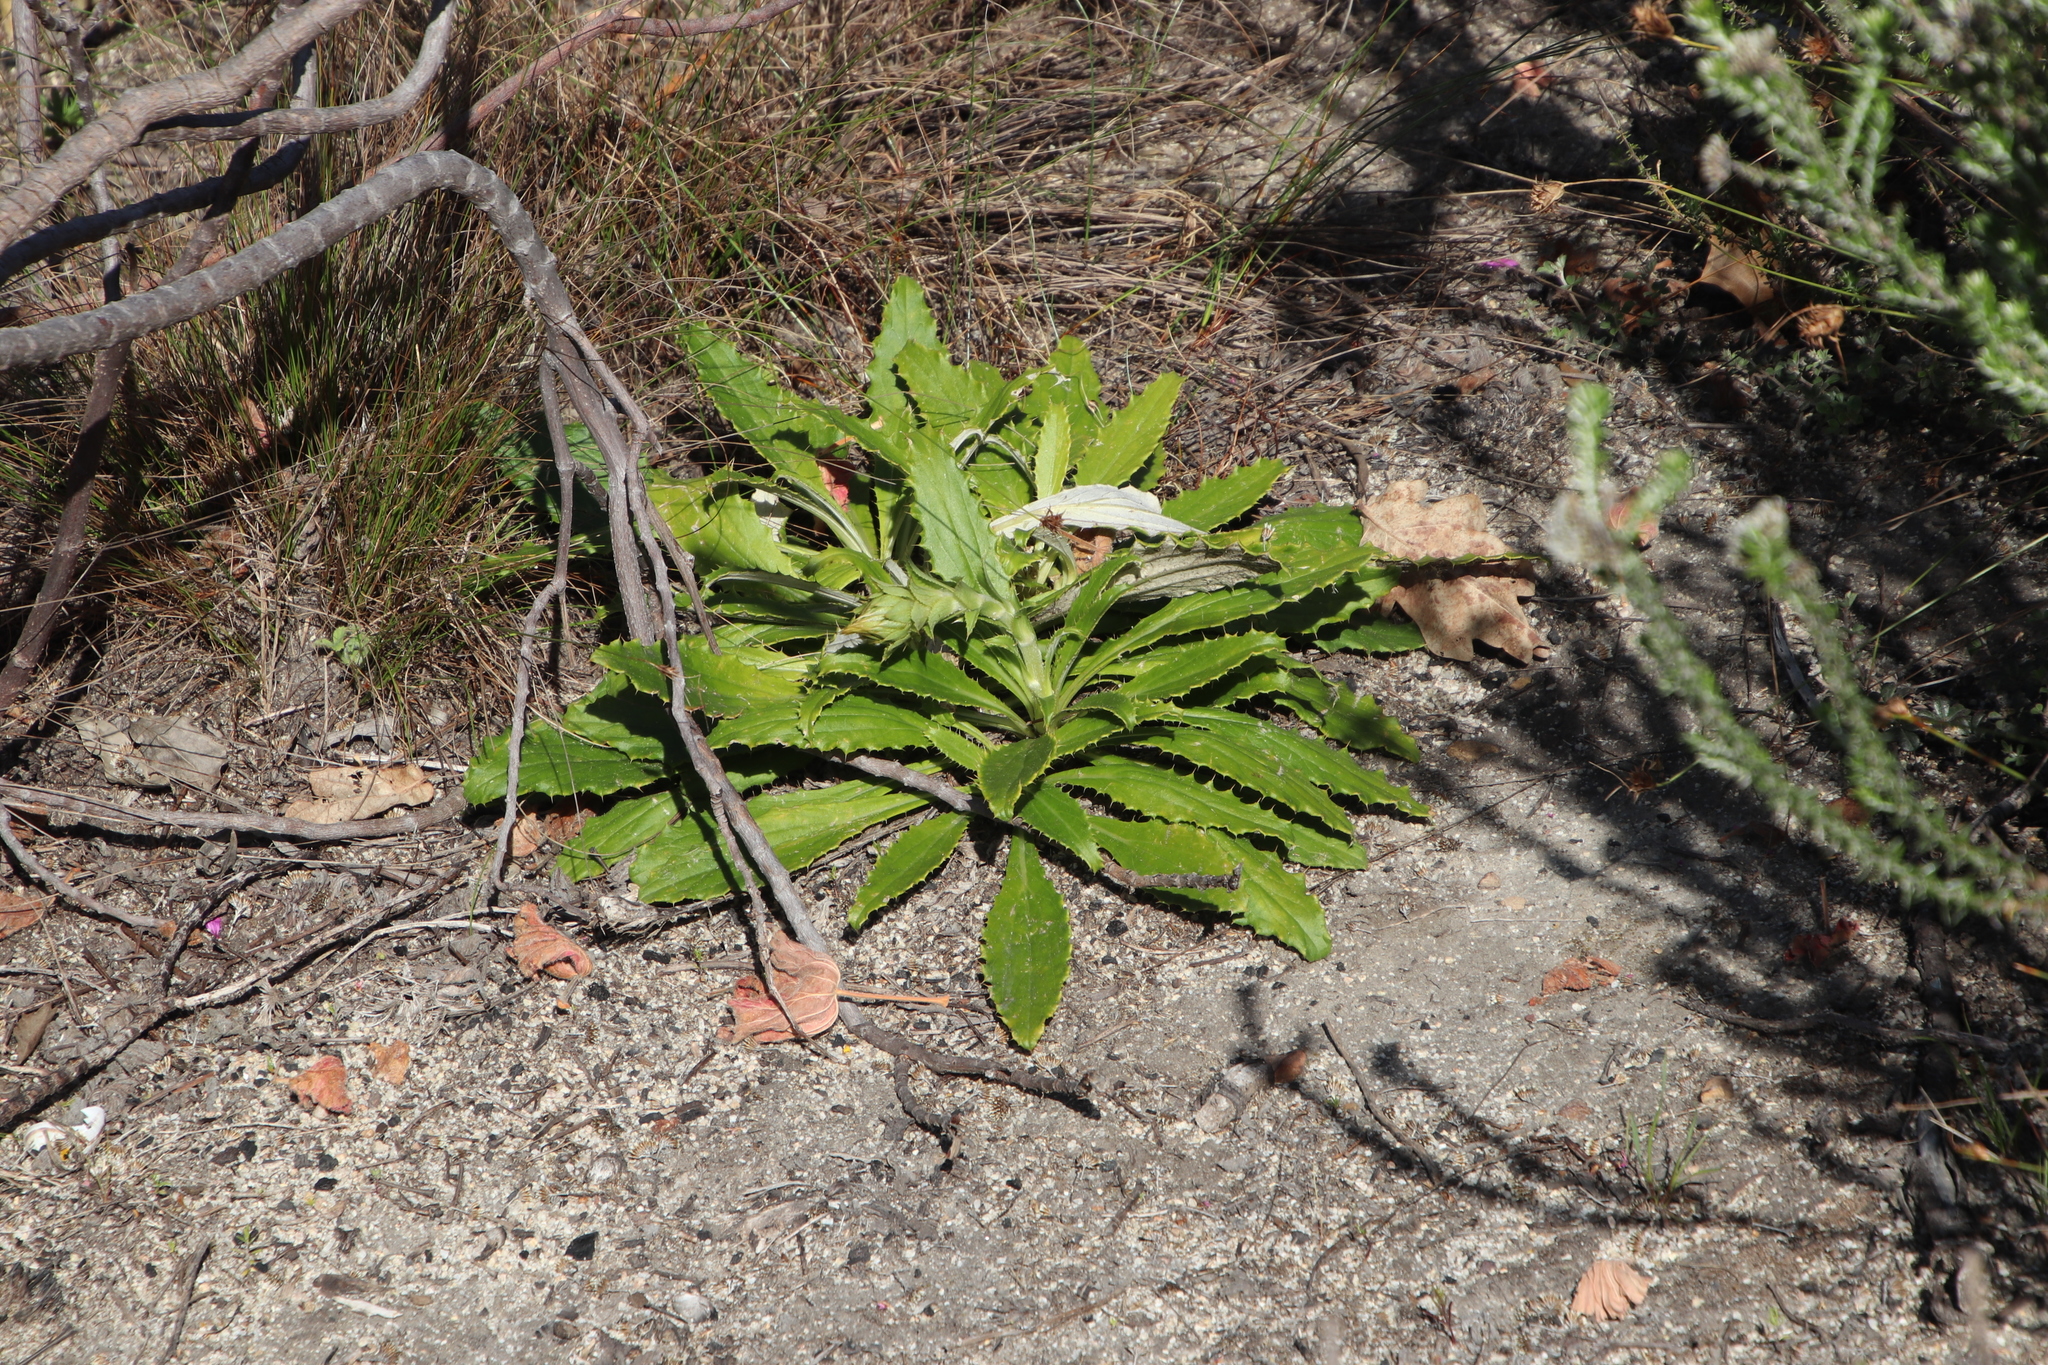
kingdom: Plantae
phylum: Tracheophyta
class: Magnoliopsida
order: Asterales
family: Asteraceae
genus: Berkheya
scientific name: Berkheya armata
